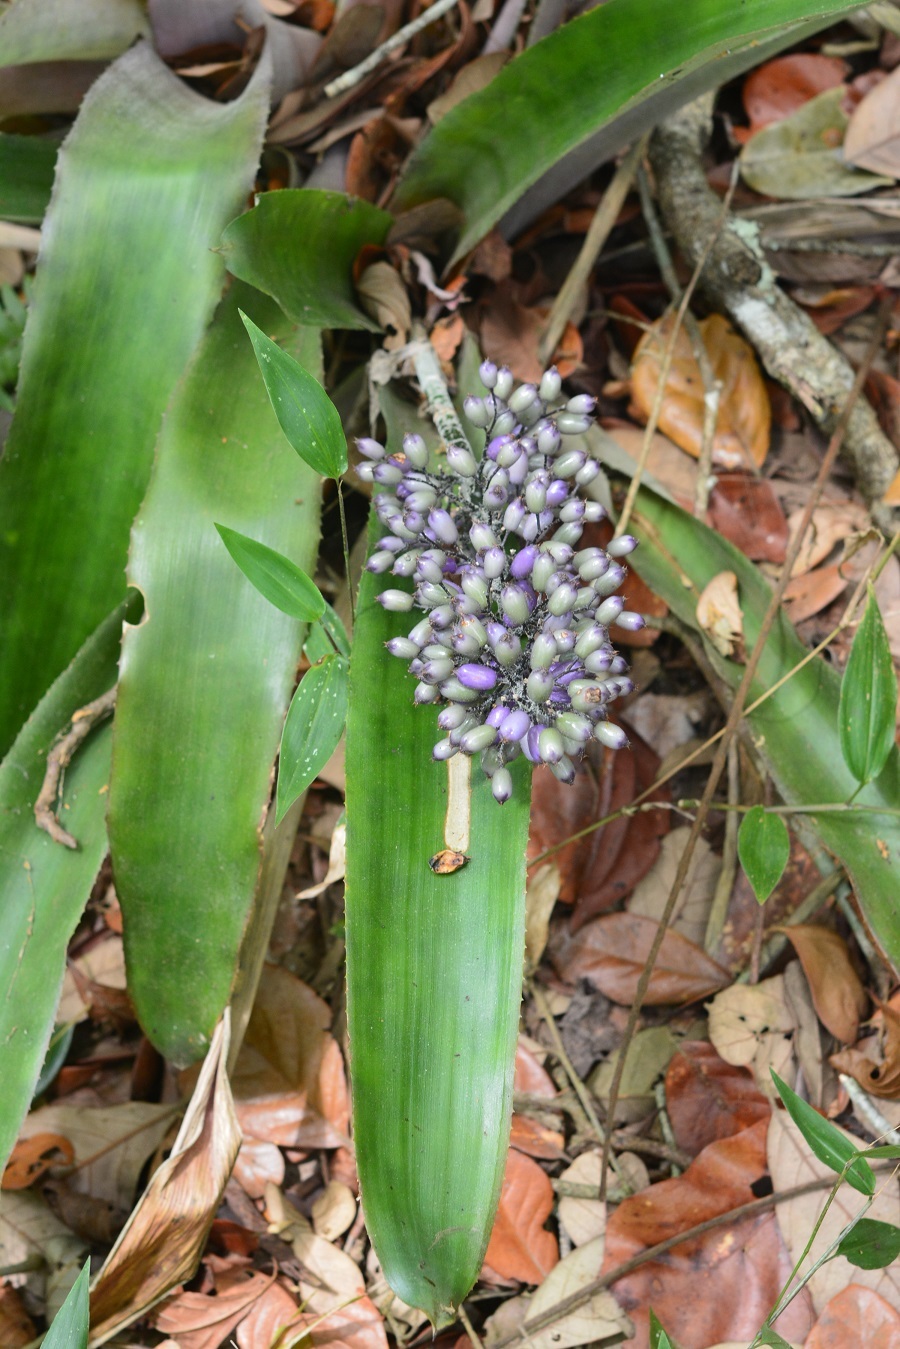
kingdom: Plantae
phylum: Tracheophyta
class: Liliopsida
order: Poales
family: Bromeliaceae
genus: Aechmea
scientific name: Aechmea mexicana
